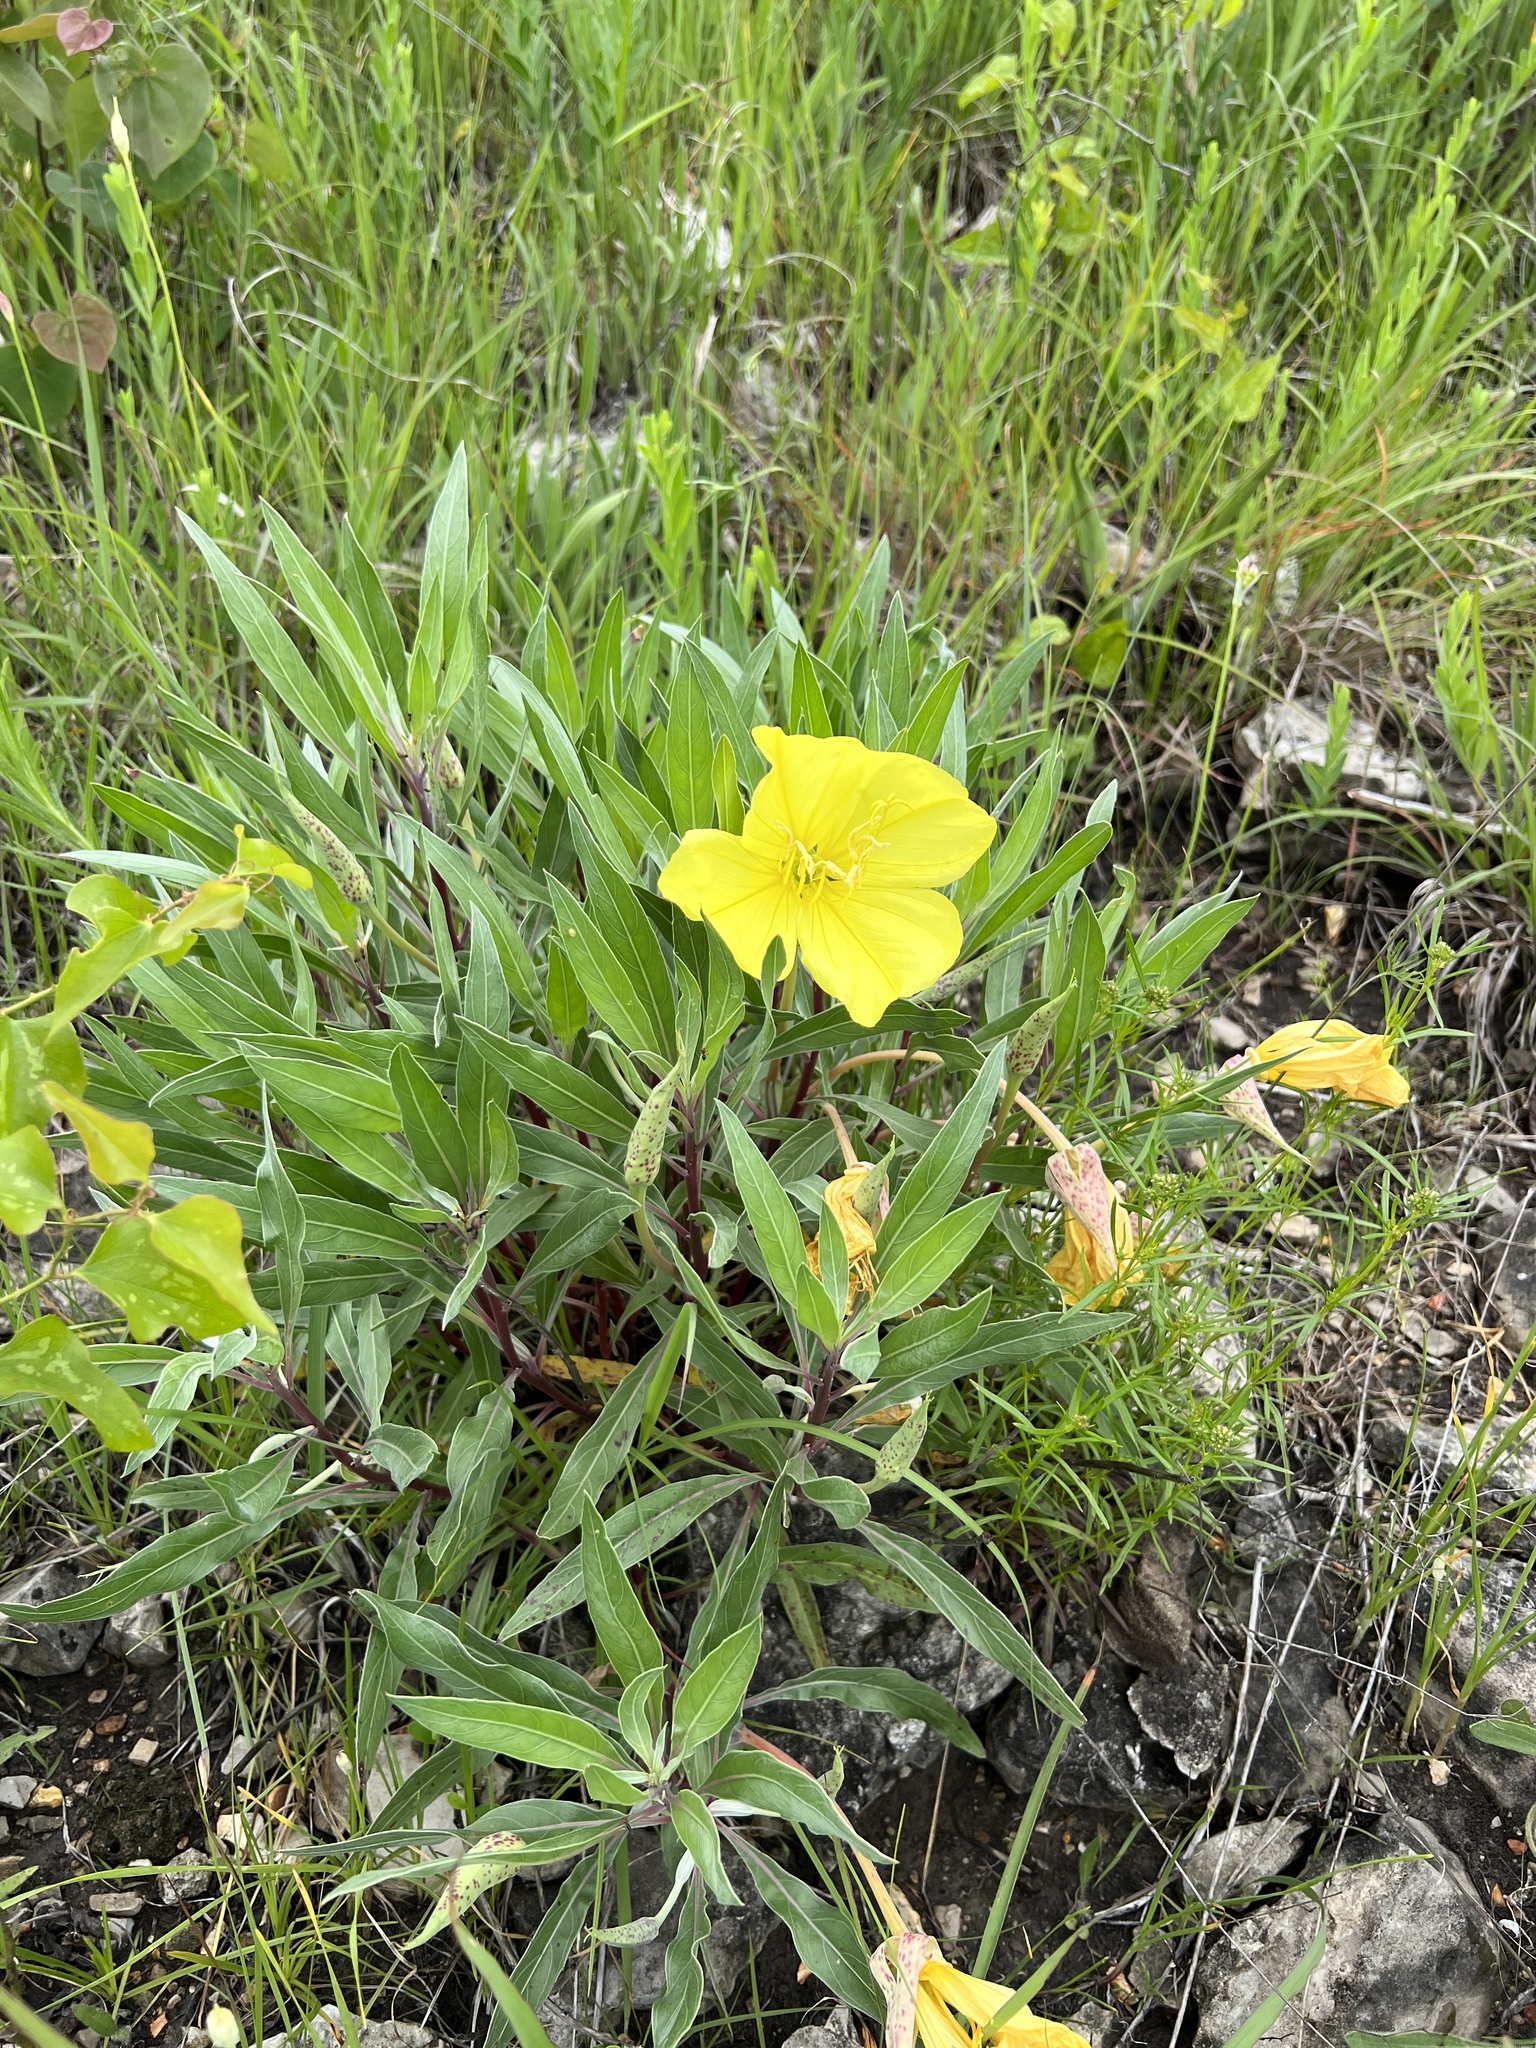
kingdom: Plantae
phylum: Tracheophyta
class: Magnoliopsida
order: Myrtales
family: Onagraceae
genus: Oenothera
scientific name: Oenothera macrocarpa
